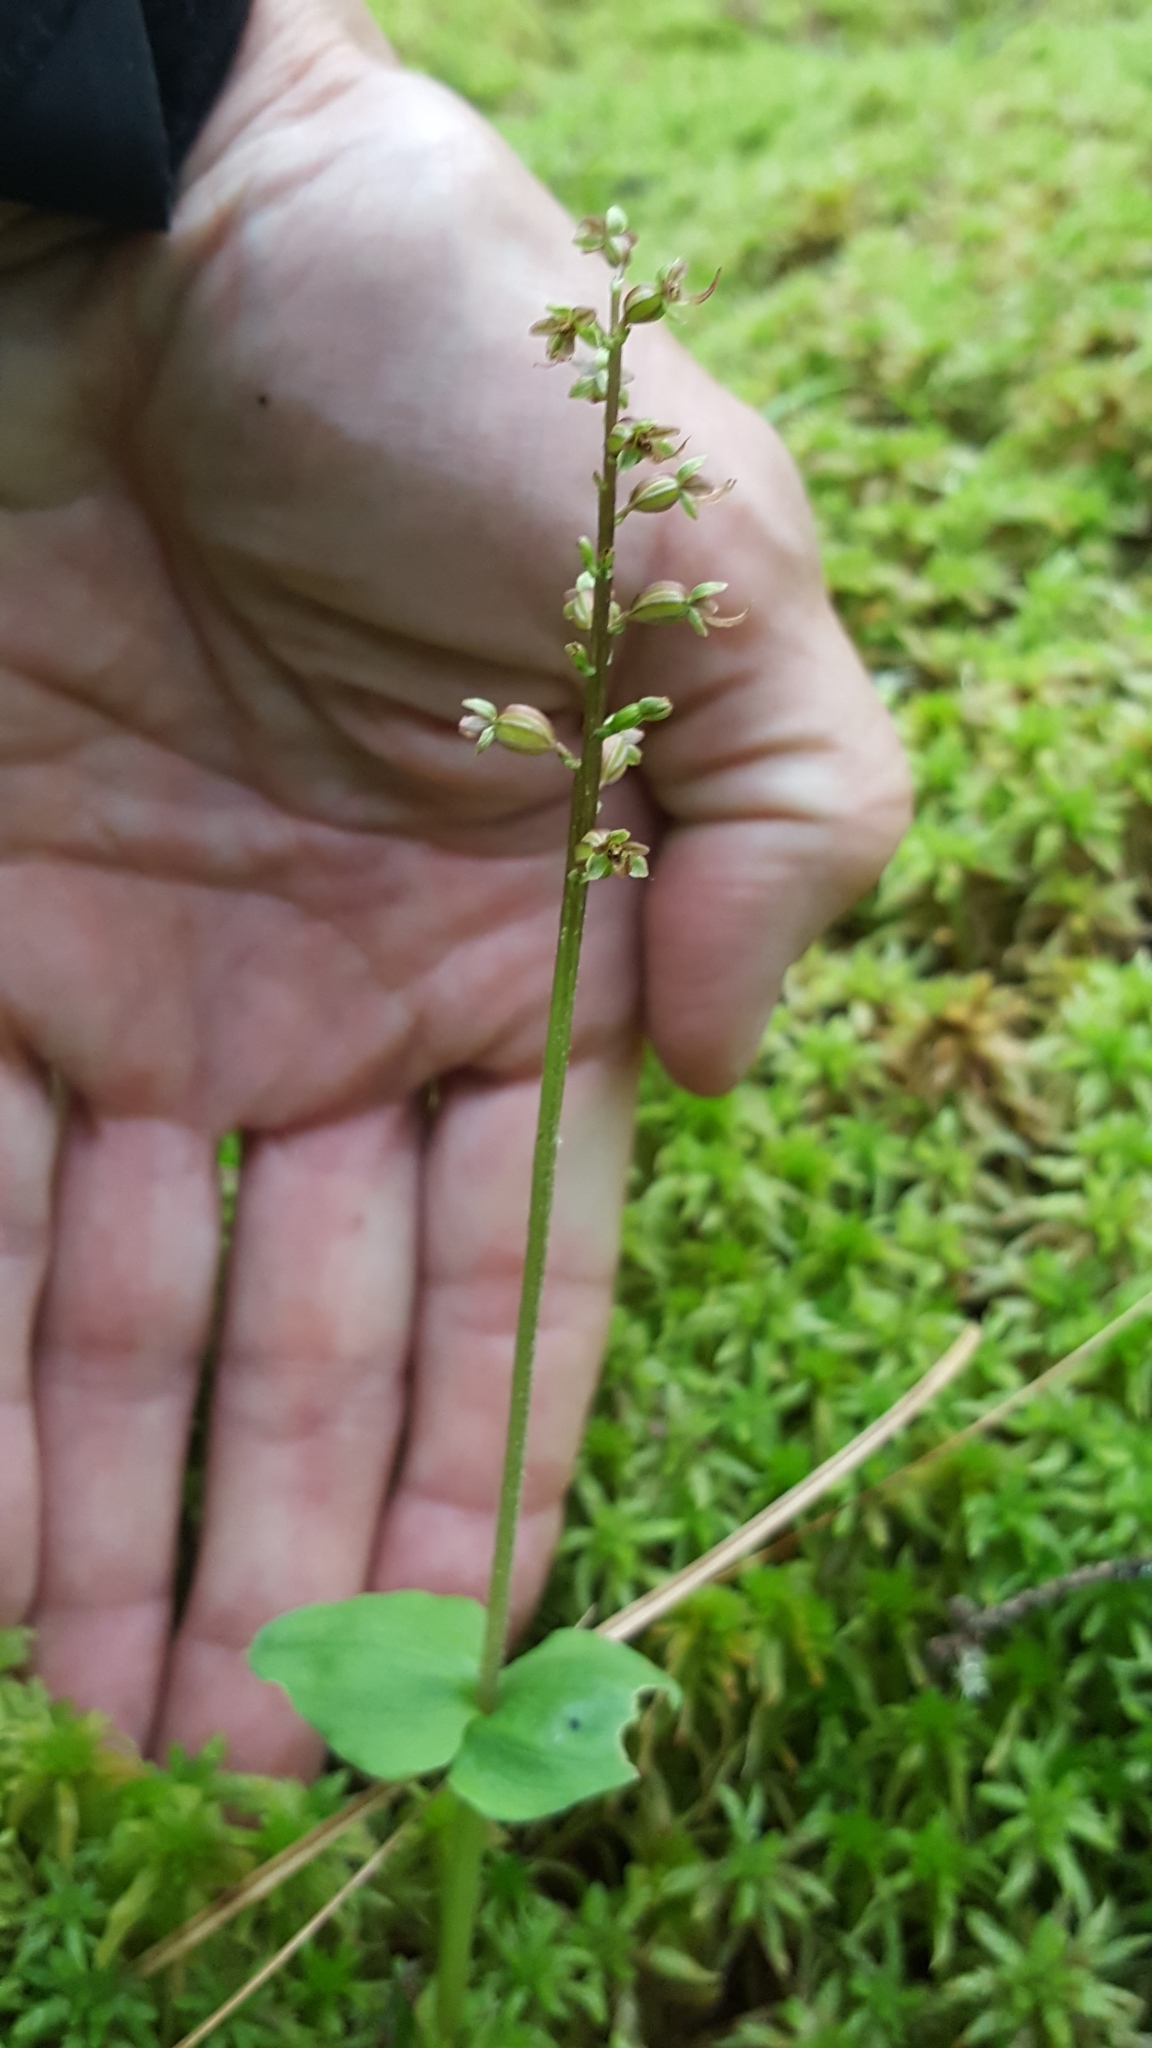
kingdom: Plantae
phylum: Tracheophyta
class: Liliopsida
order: Asparagales
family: Orchidaceae
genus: Neottia
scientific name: Neottia cordata
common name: Lesser twayblade
